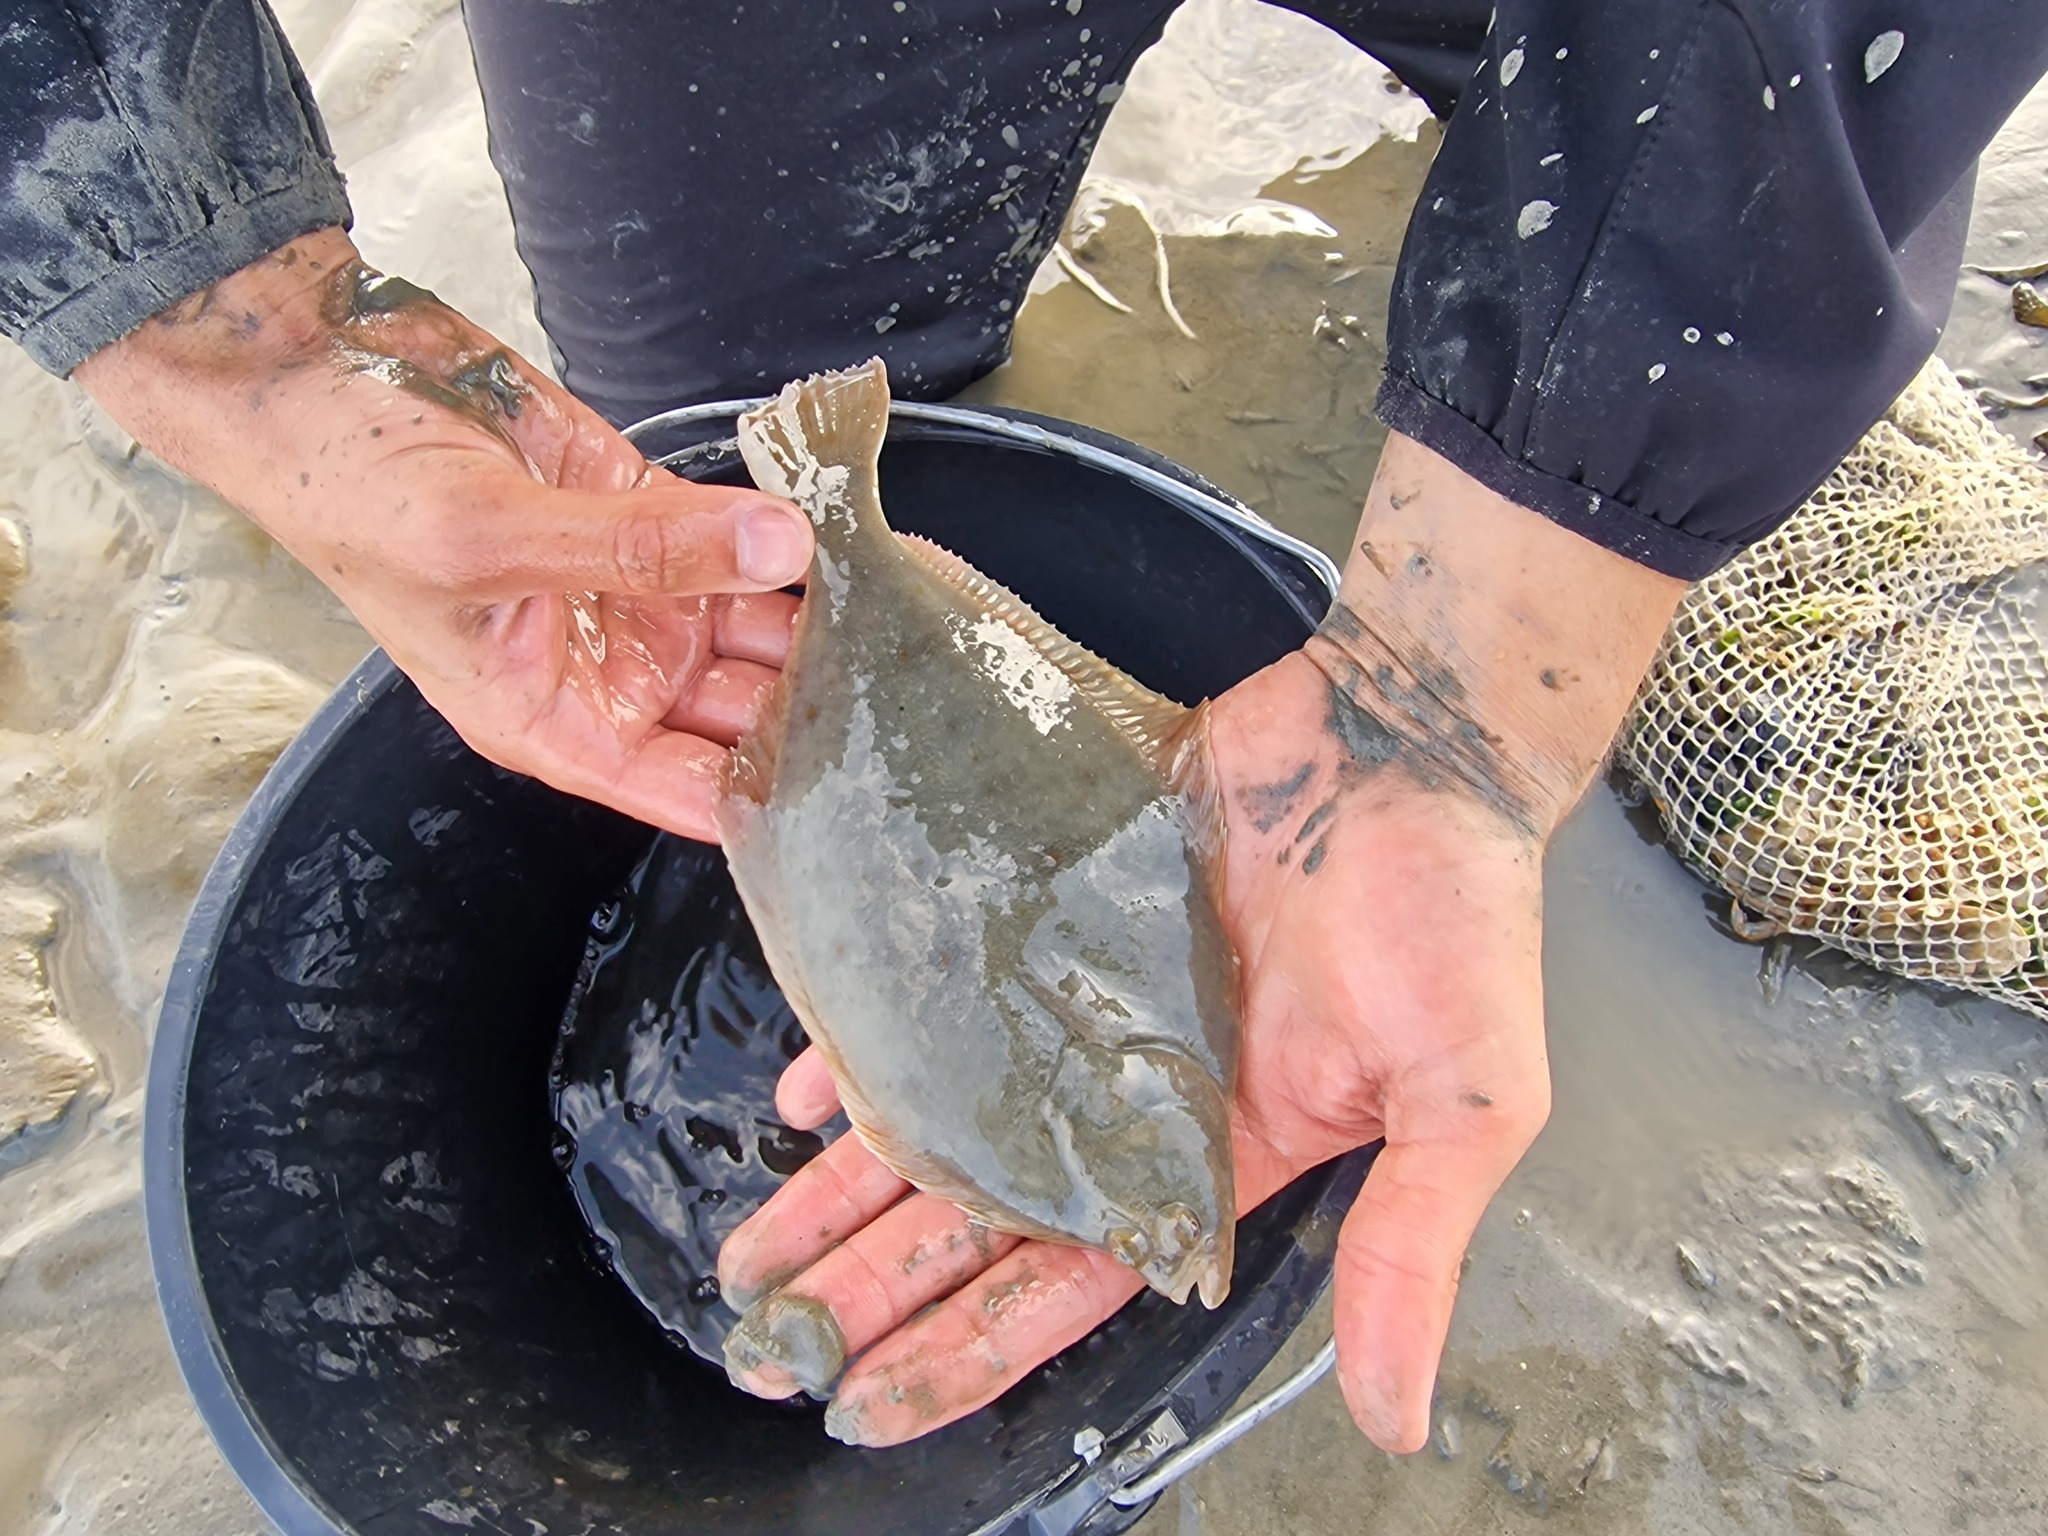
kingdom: Animalia
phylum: Chordata
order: Pleuronectiformes
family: Pleuronectidae
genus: Platichthys
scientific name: Platichthys flesus
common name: European flounder
